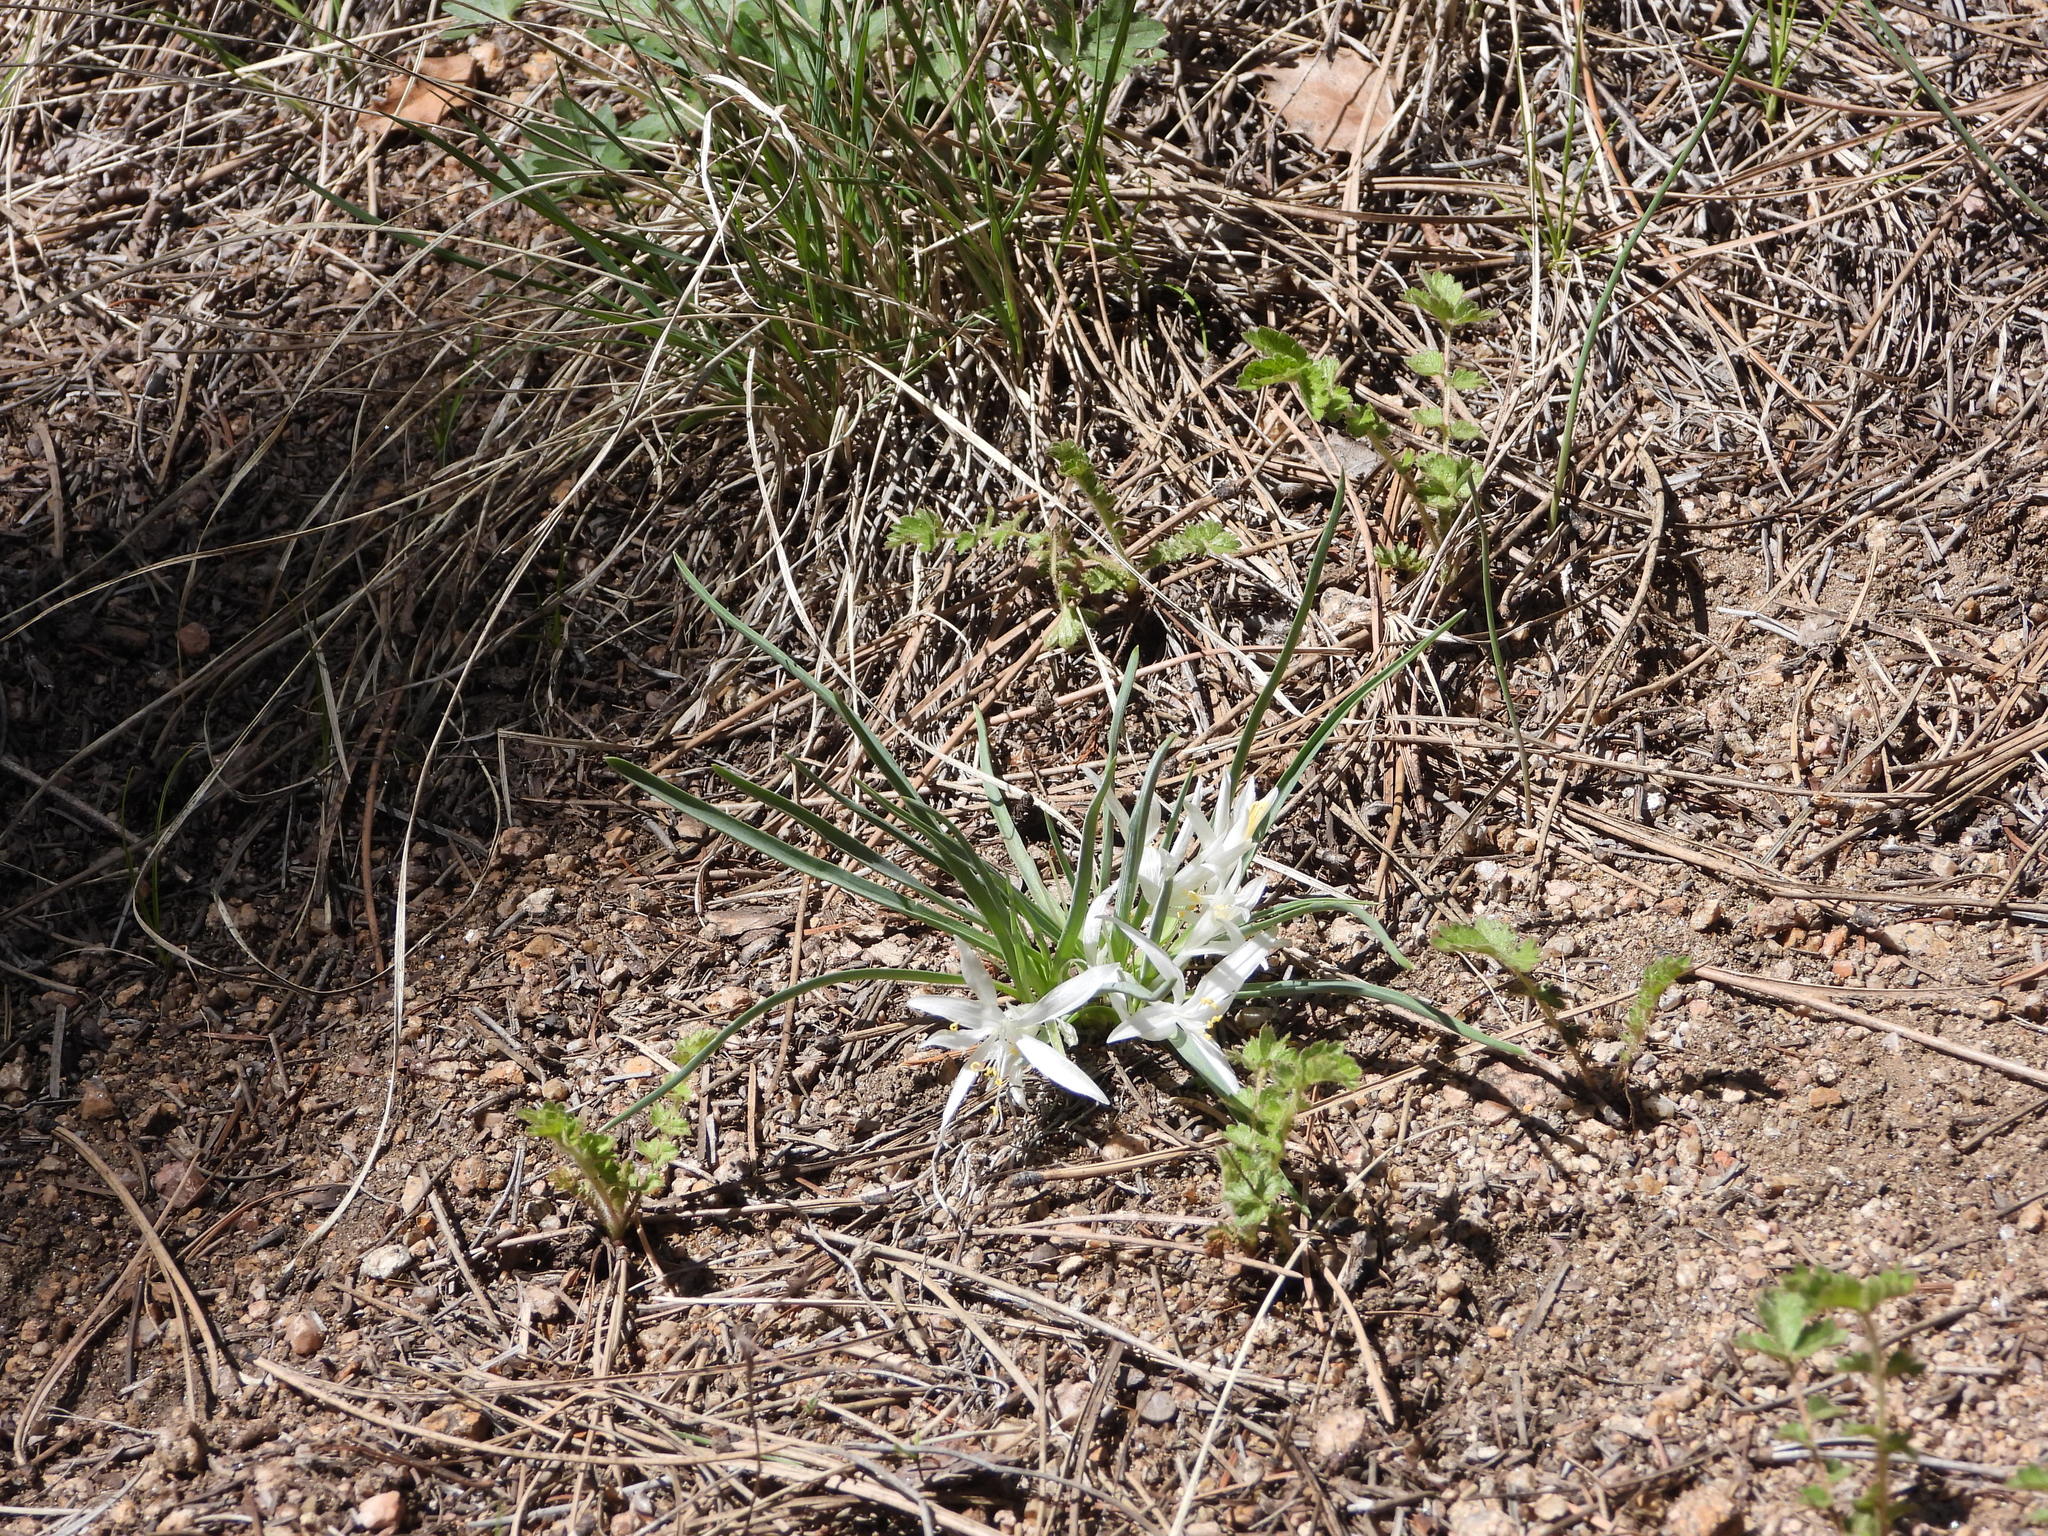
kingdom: Plantae
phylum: Tracheophyta
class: Liliopsida
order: Asparagales
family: Asparagaceae
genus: Leucocrinum
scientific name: Leucocrinum montanum
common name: Mountain-lily
